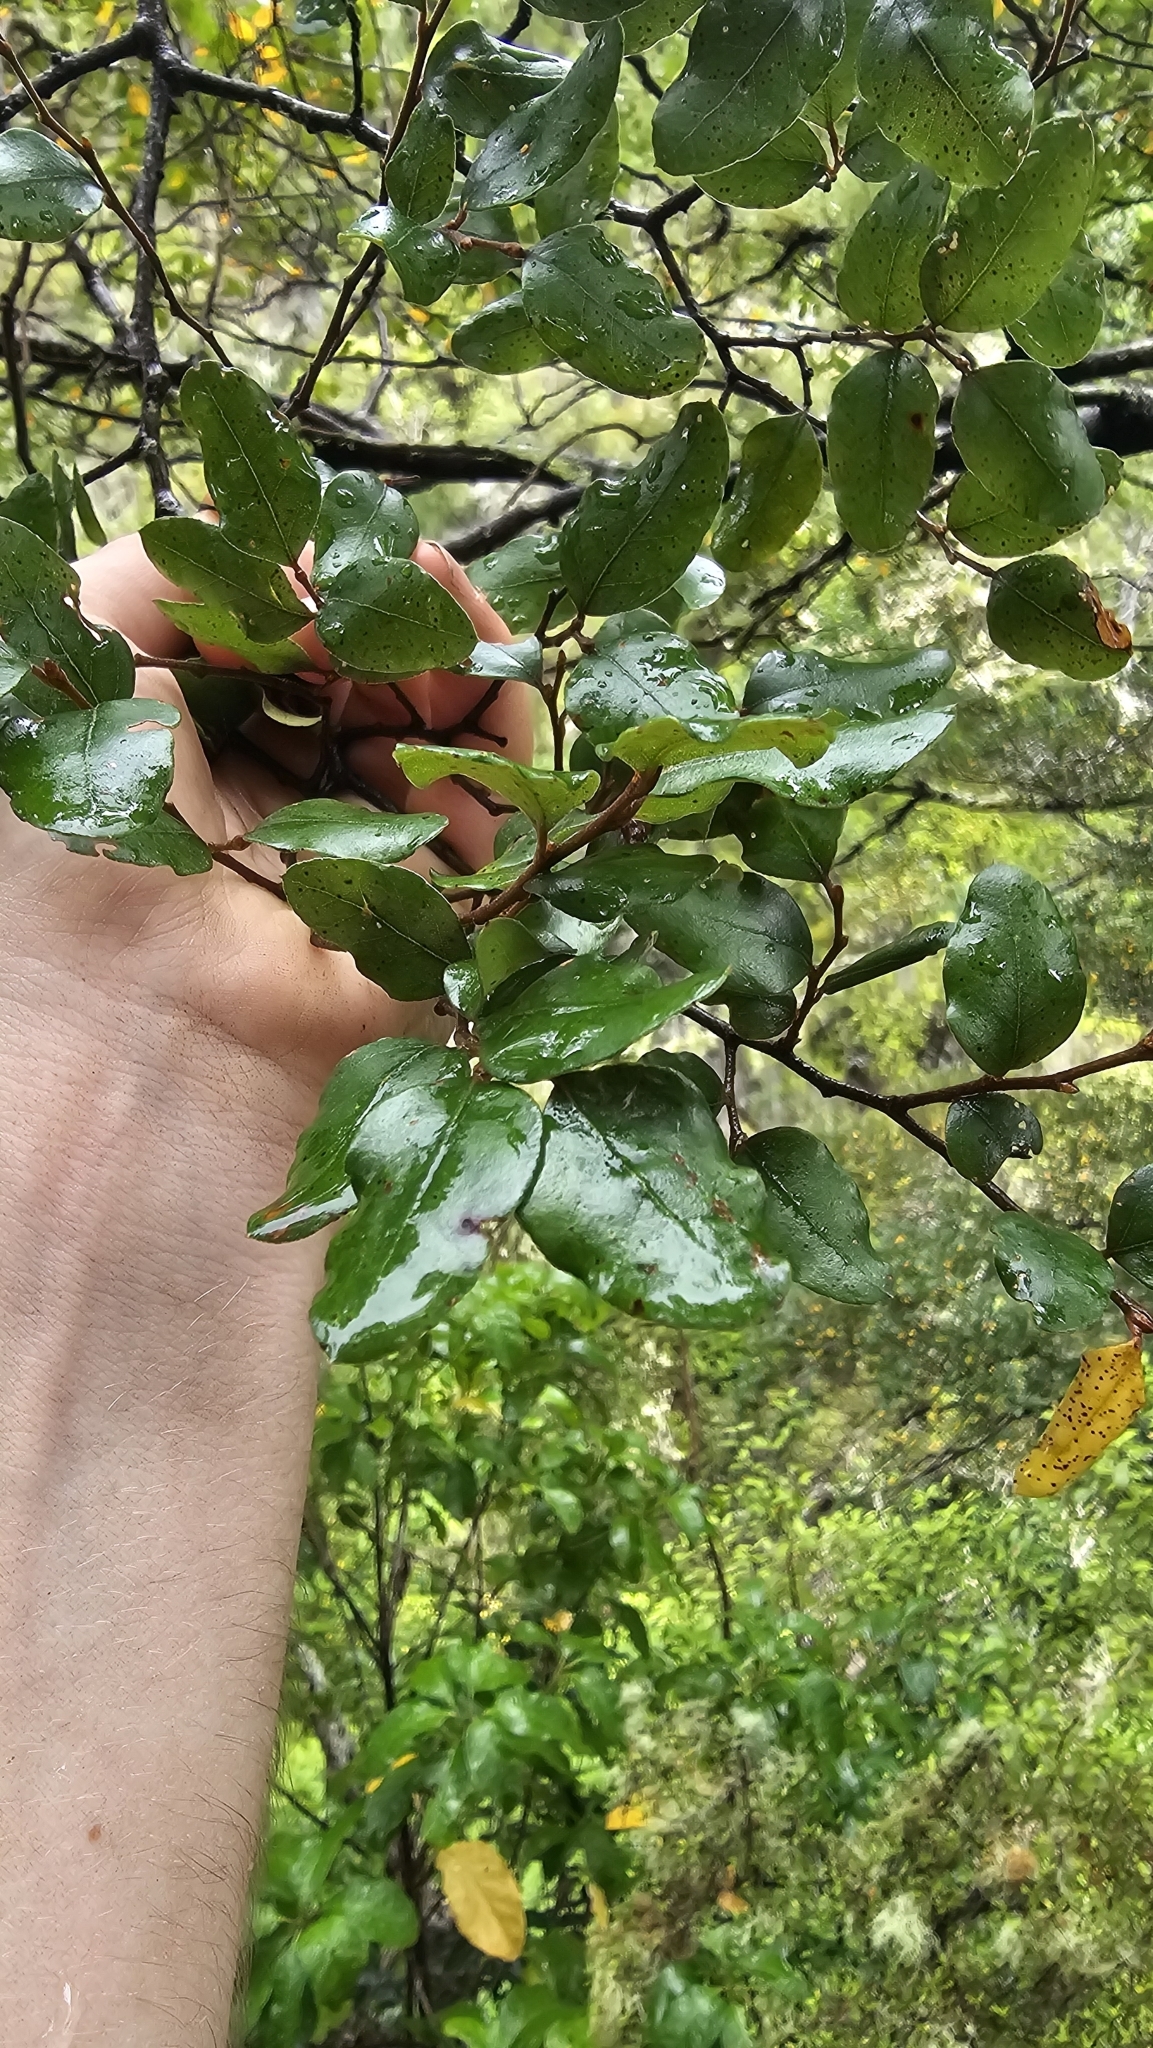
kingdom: Plantae
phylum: Tracheophyta
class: Magnoliopsida
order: Fagales
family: Nothofagaceae
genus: Nothofagus
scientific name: Nothofagus apiculata
